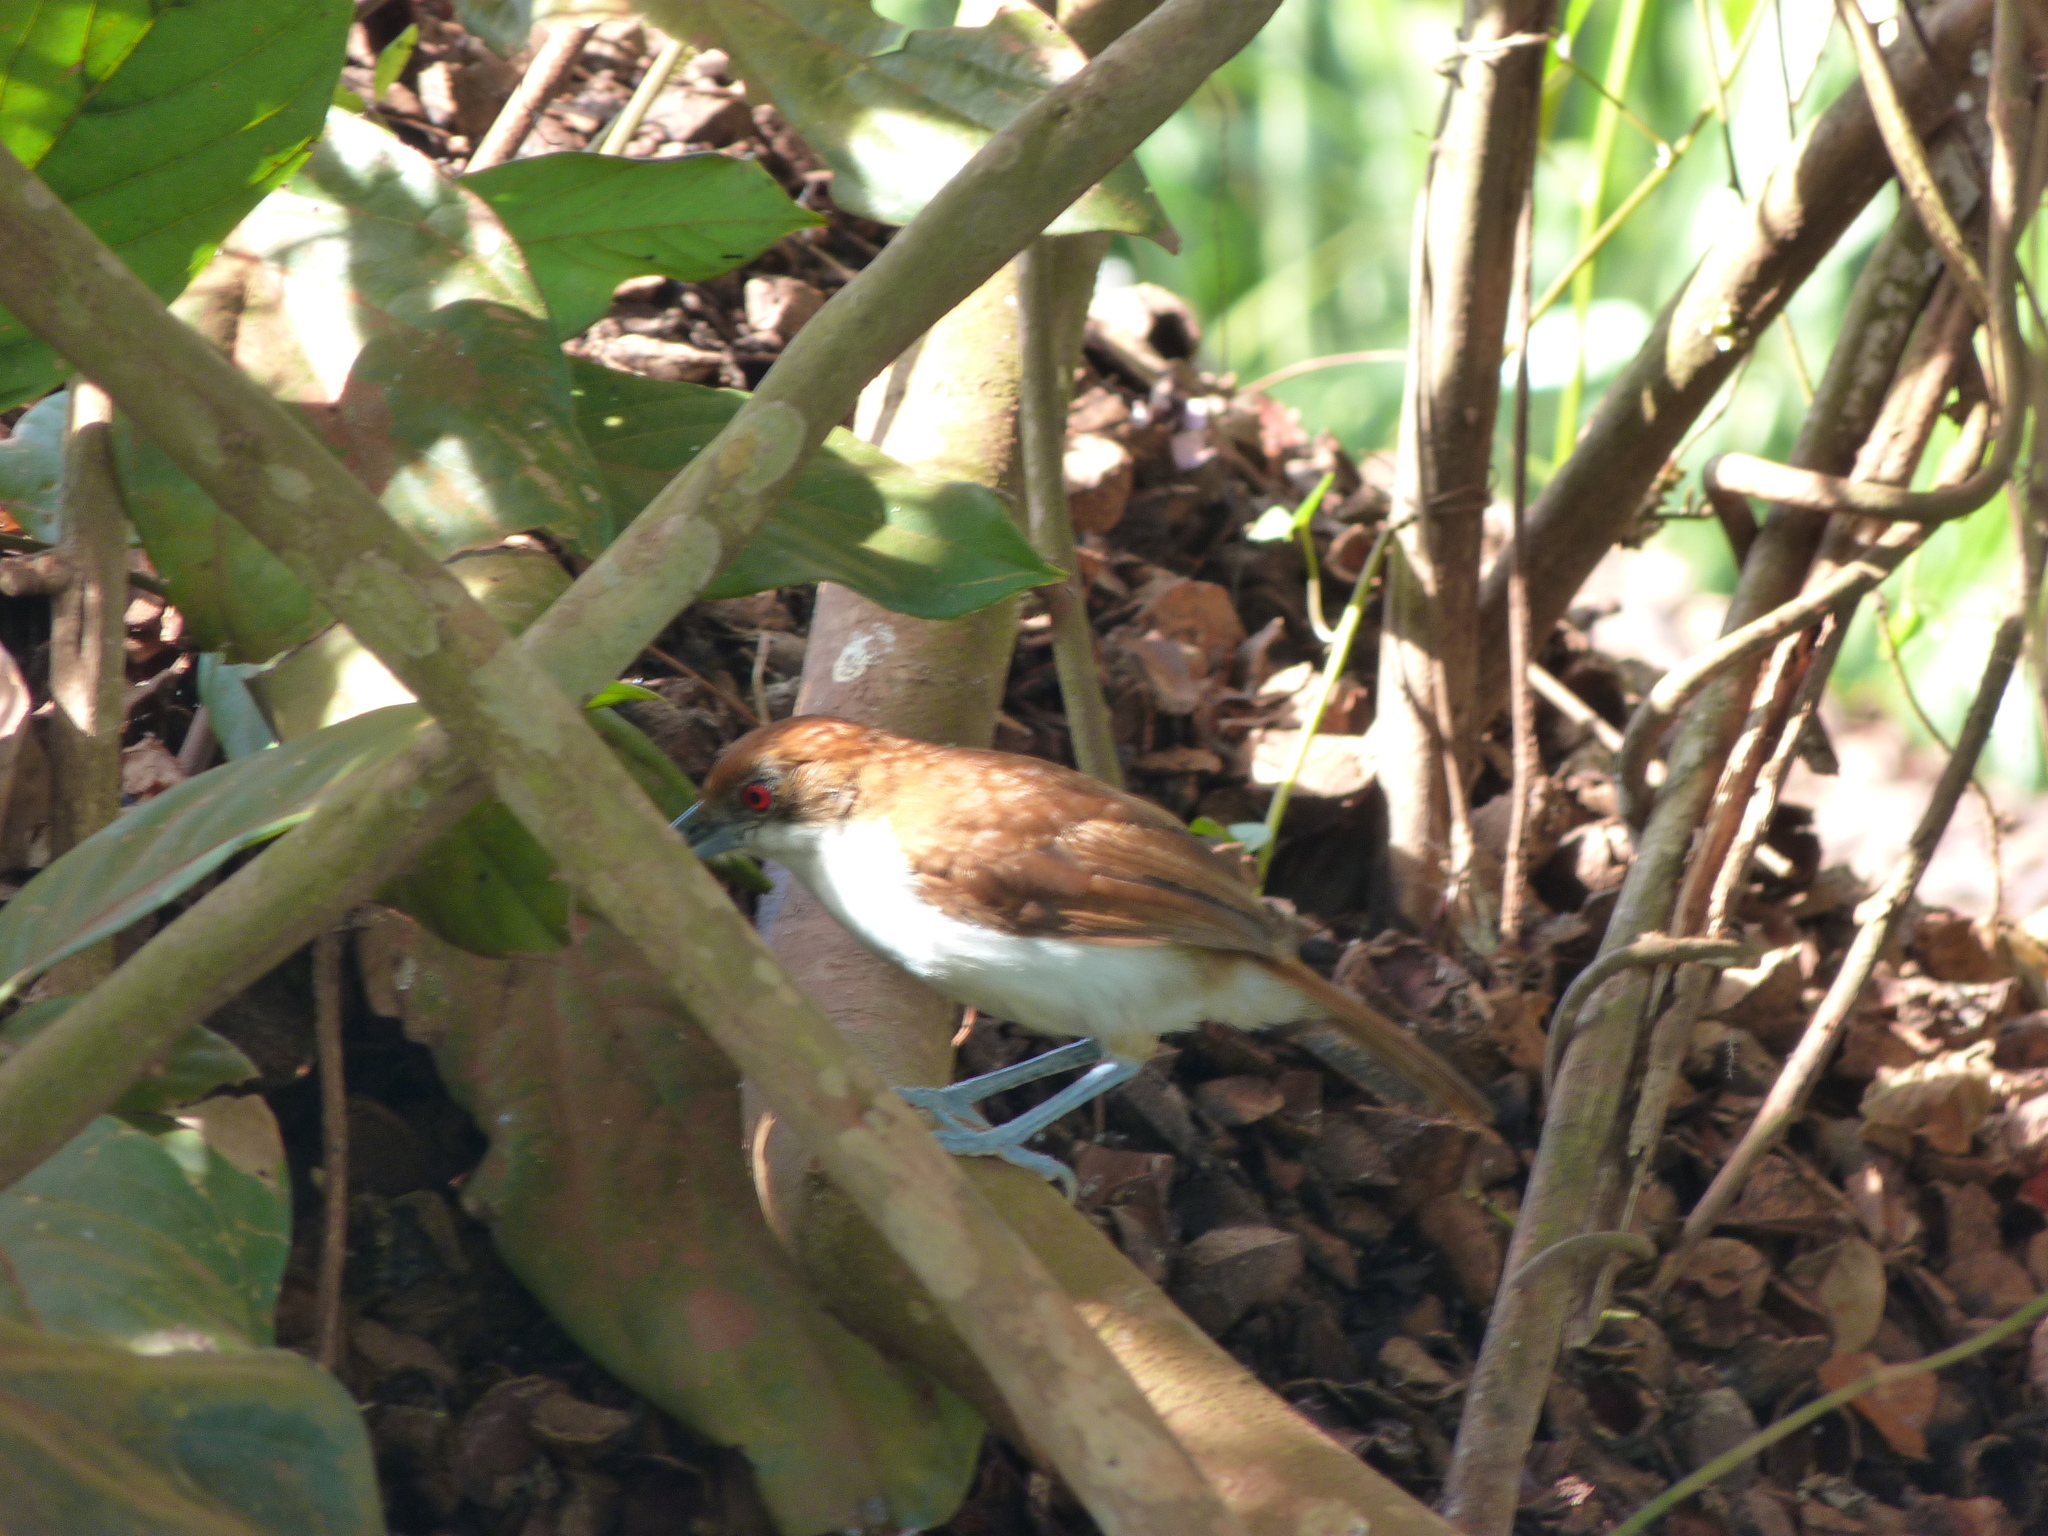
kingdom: Animalia
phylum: Chordata
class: Aves
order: Passeriformes
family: Thamnophilidae
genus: Taraba
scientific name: Taraba major
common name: Great antshrike
